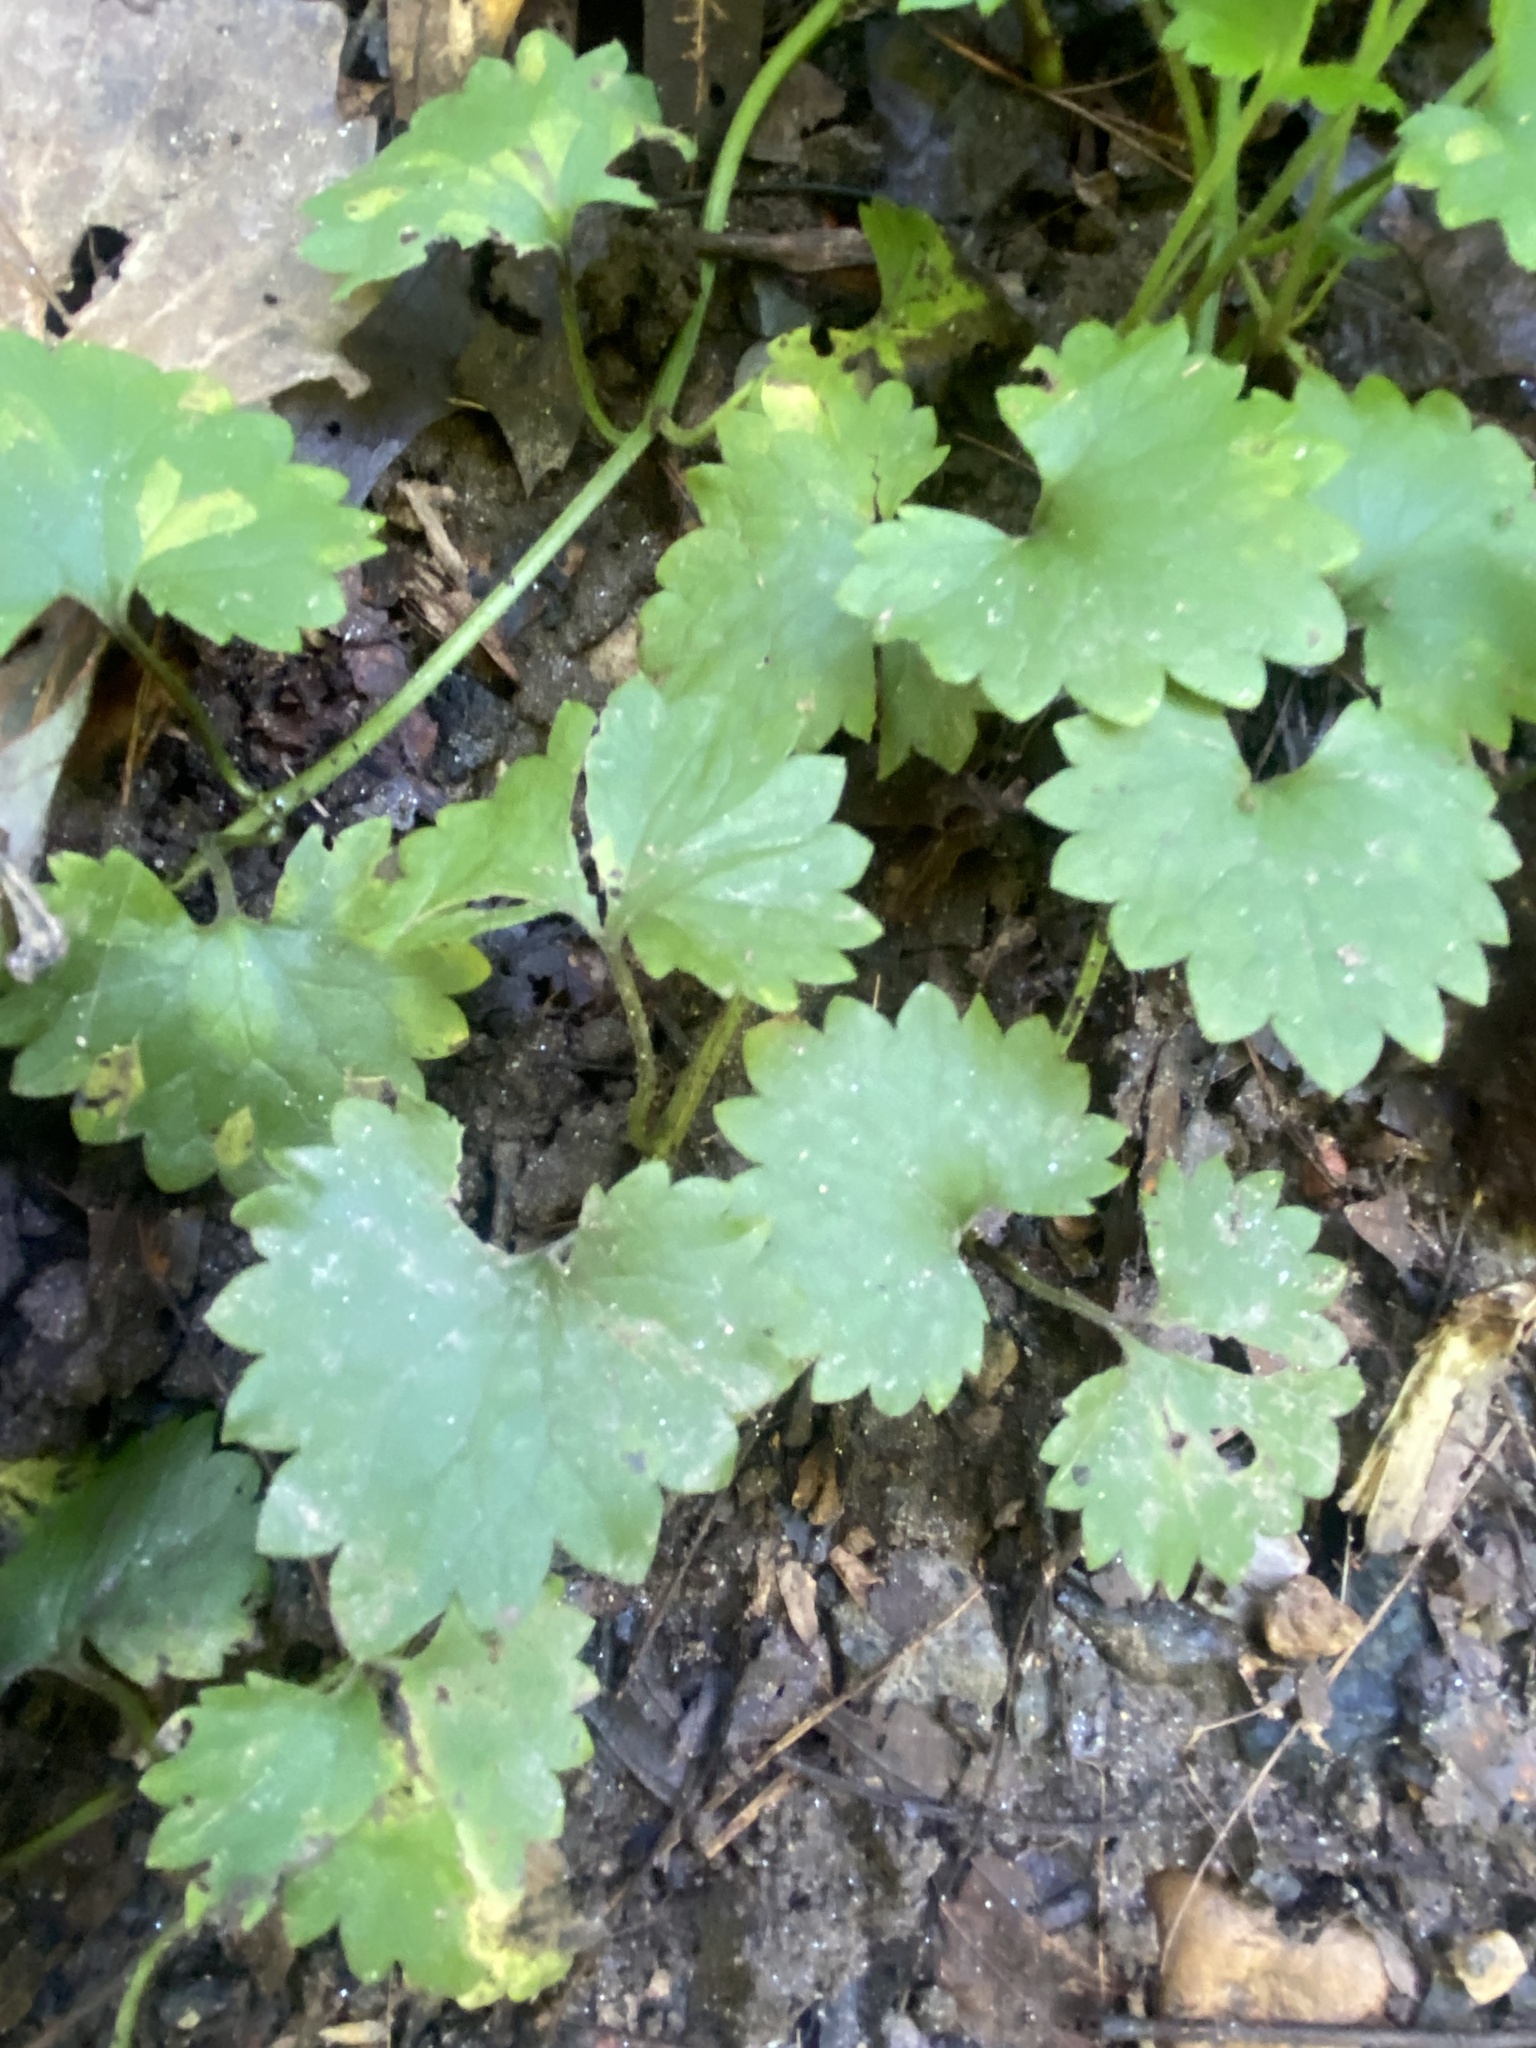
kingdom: Plantae
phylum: Tracheophyta
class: Magnoliopsida
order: Lamiales
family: Lamiaceae
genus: Glechoma
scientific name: Glechoma hederacea
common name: Ground ivy
